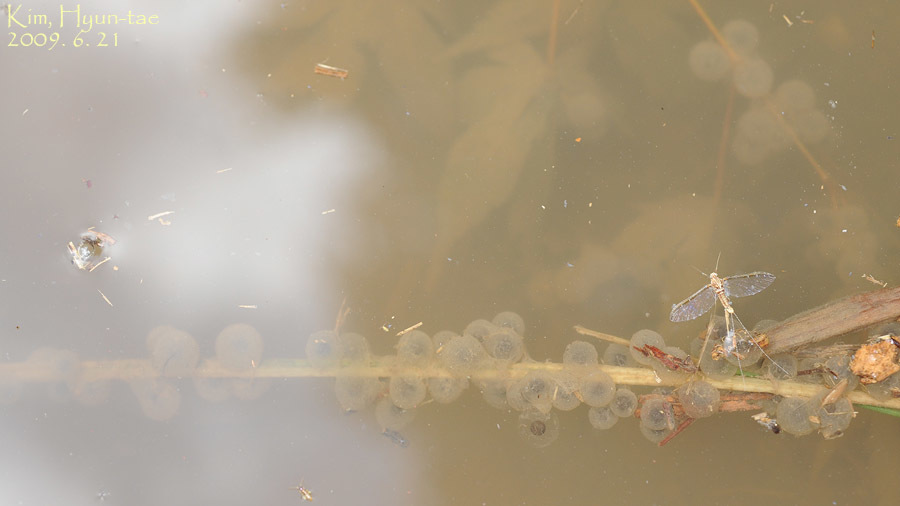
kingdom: Animalia
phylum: Chordata
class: Amphibia
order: Anura
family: Ranidae
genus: Glandirana
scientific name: Glandirana emeljanovi
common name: Northeast china rough-skinned frog
